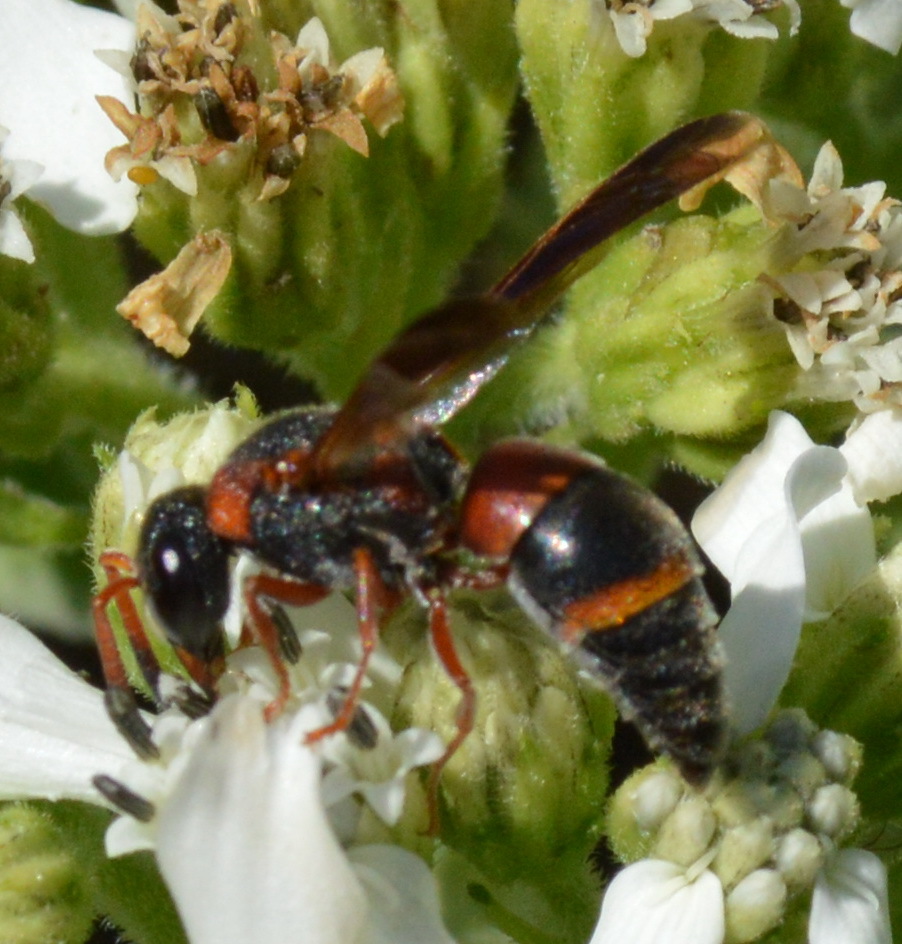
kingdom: Animalia
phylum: Arthropoda
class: Insecta
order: Hymenoptera
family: Eumenidae
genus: Pachodynerus
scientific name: Pachodynerus erynnis
